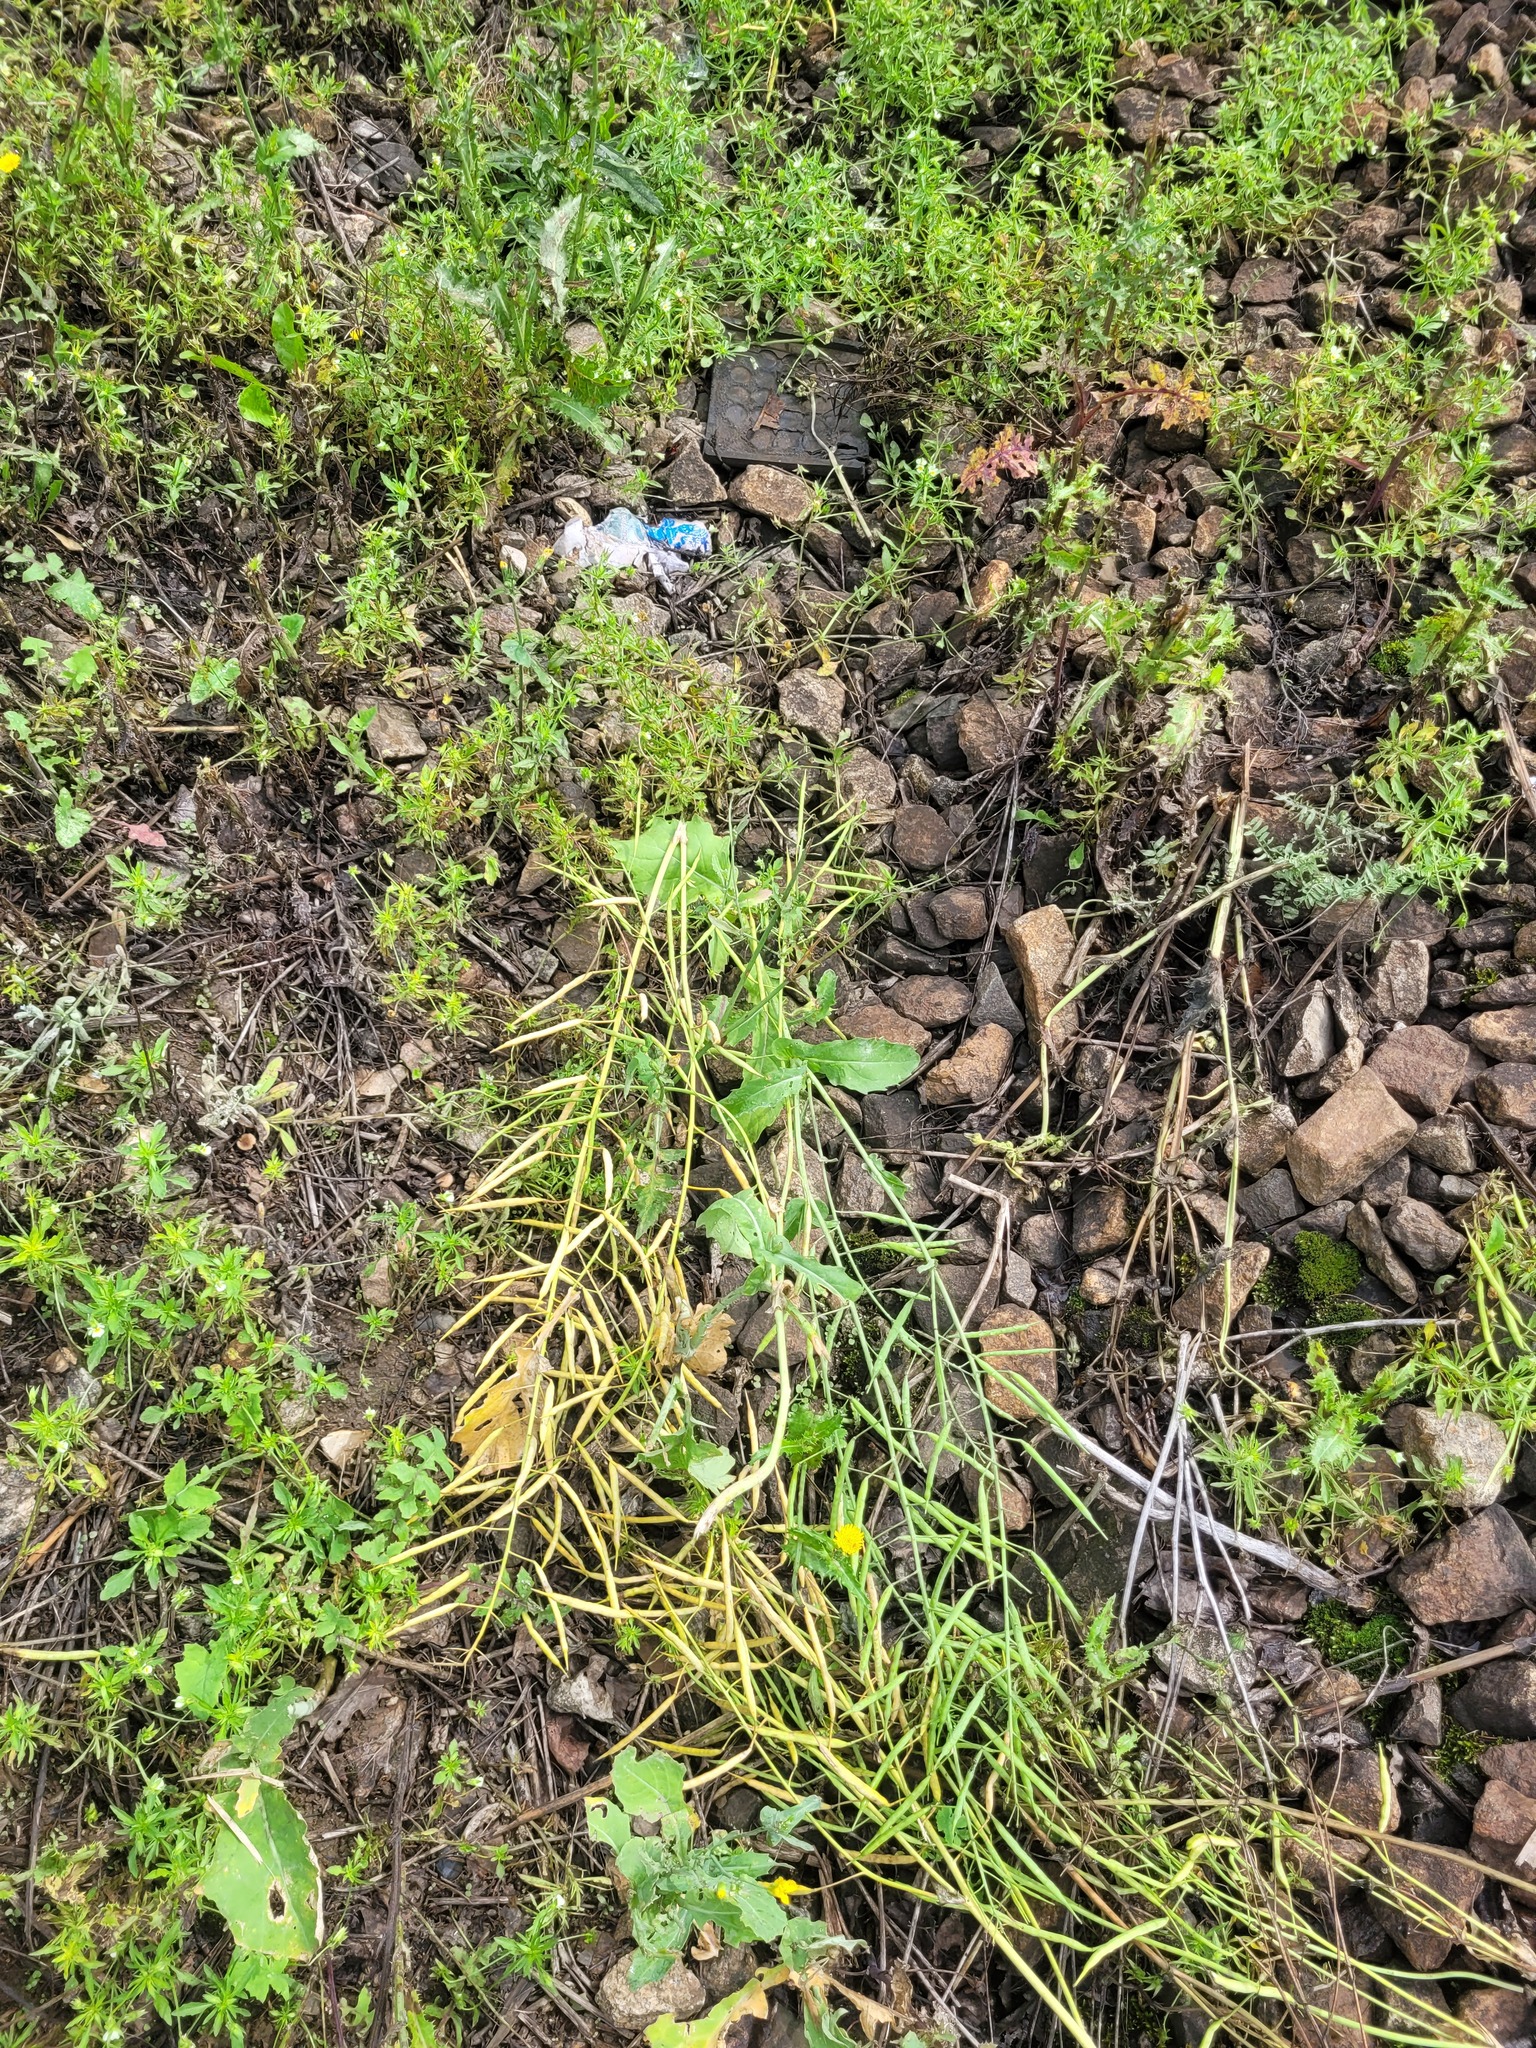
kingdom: Plantae
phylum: Tracheophyta
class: Magnoliopsida
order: Brassicales
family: Brassicaceae
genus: Brassica
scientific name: Brassica napus
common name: Rape
